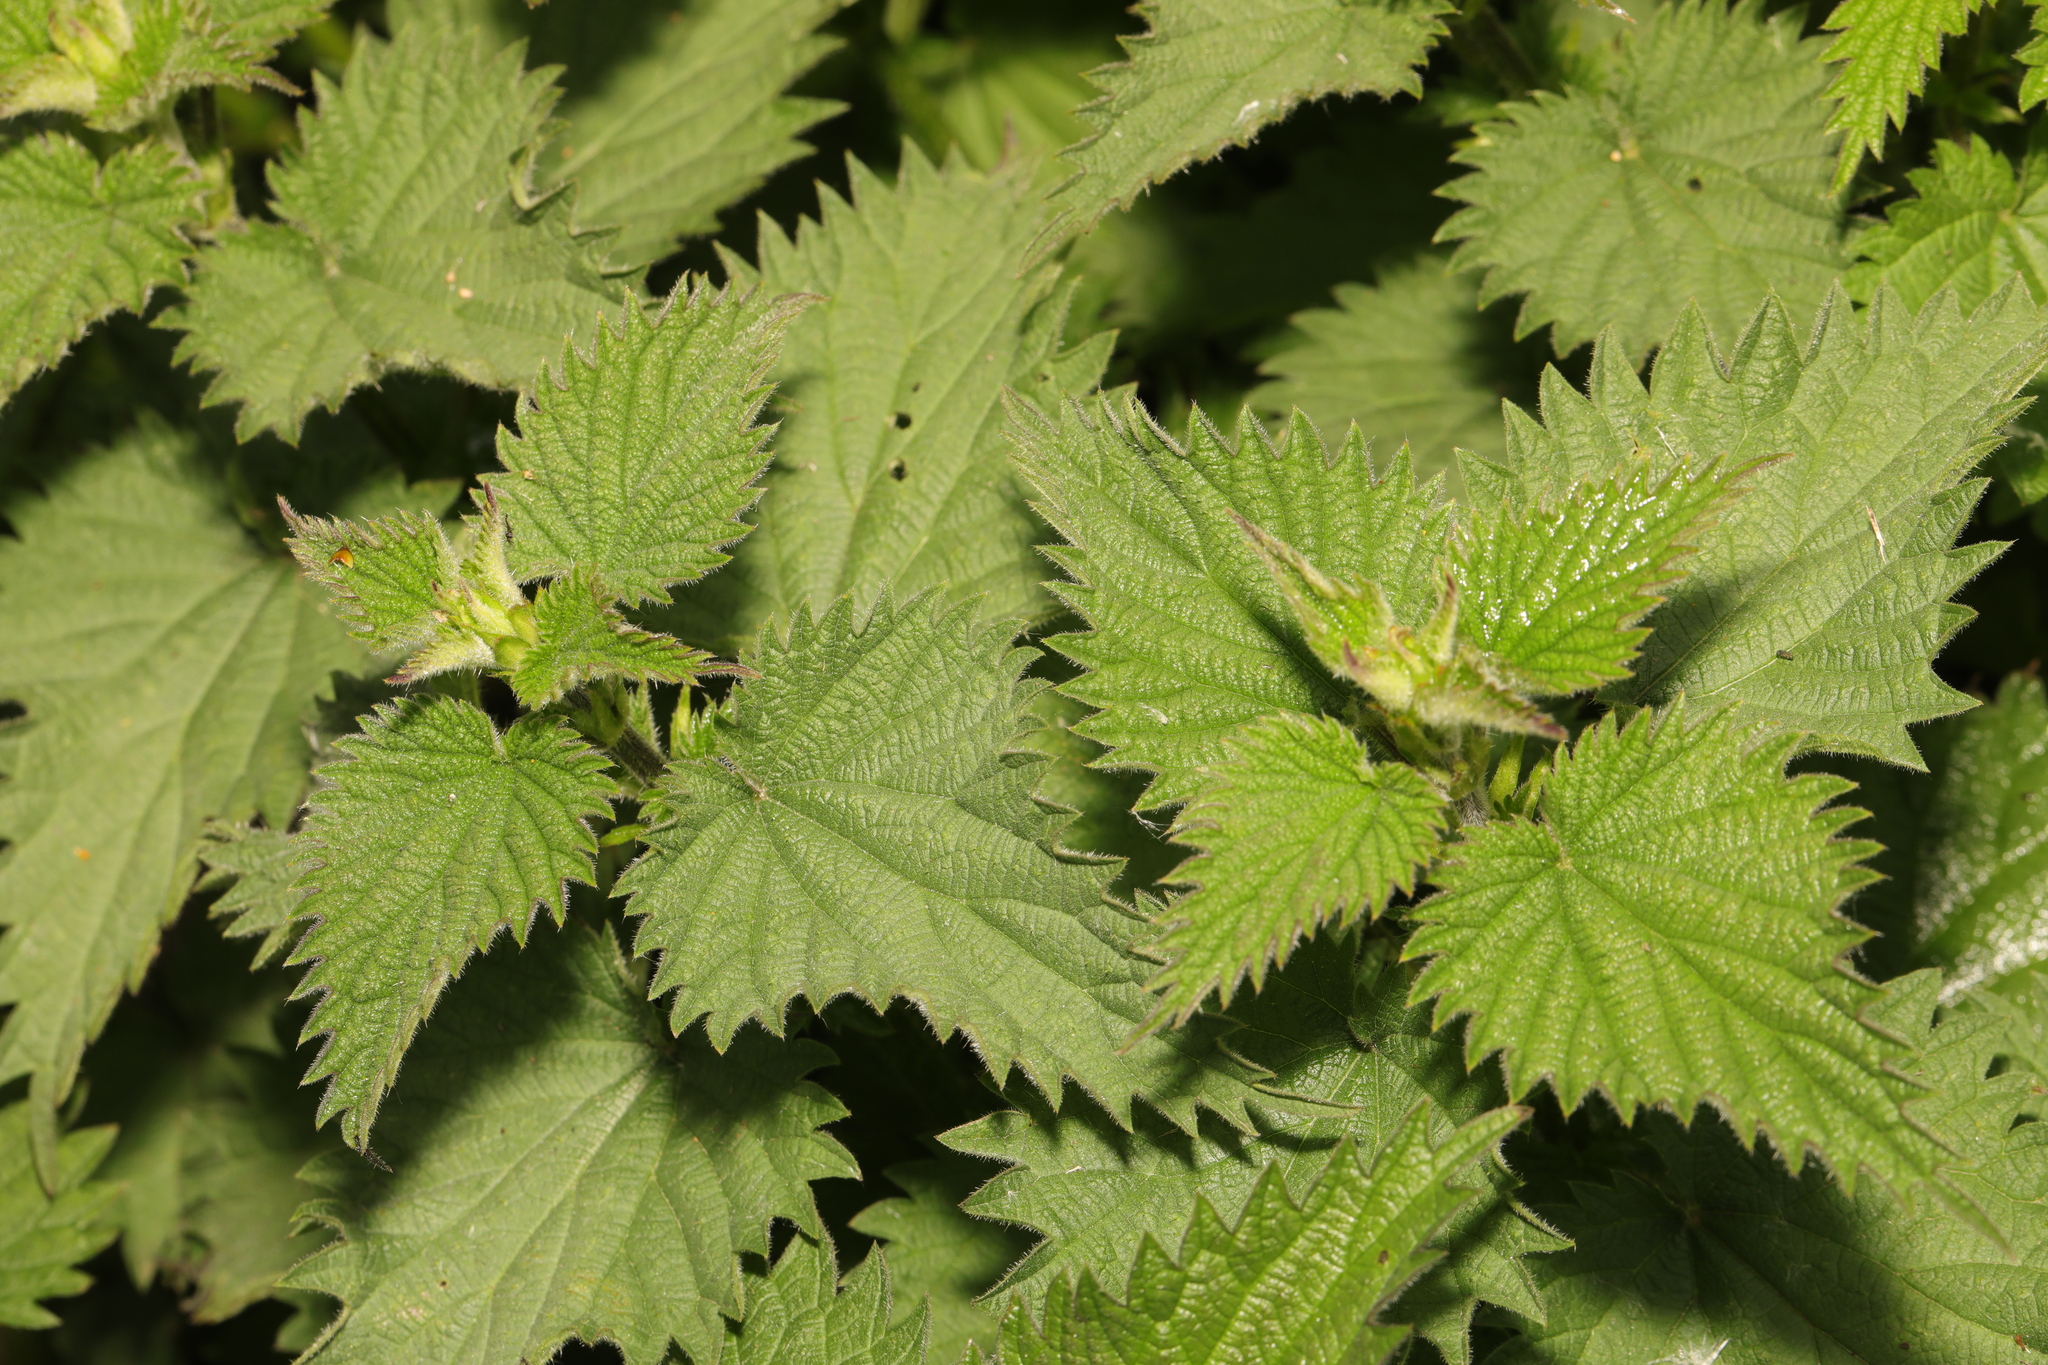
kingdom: Plantae
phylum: Tracheophyta
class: Magnoliopsida
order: Rosales
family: Urticaceae
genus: Urtica
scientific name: Urtica dioica
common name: Common nettle
